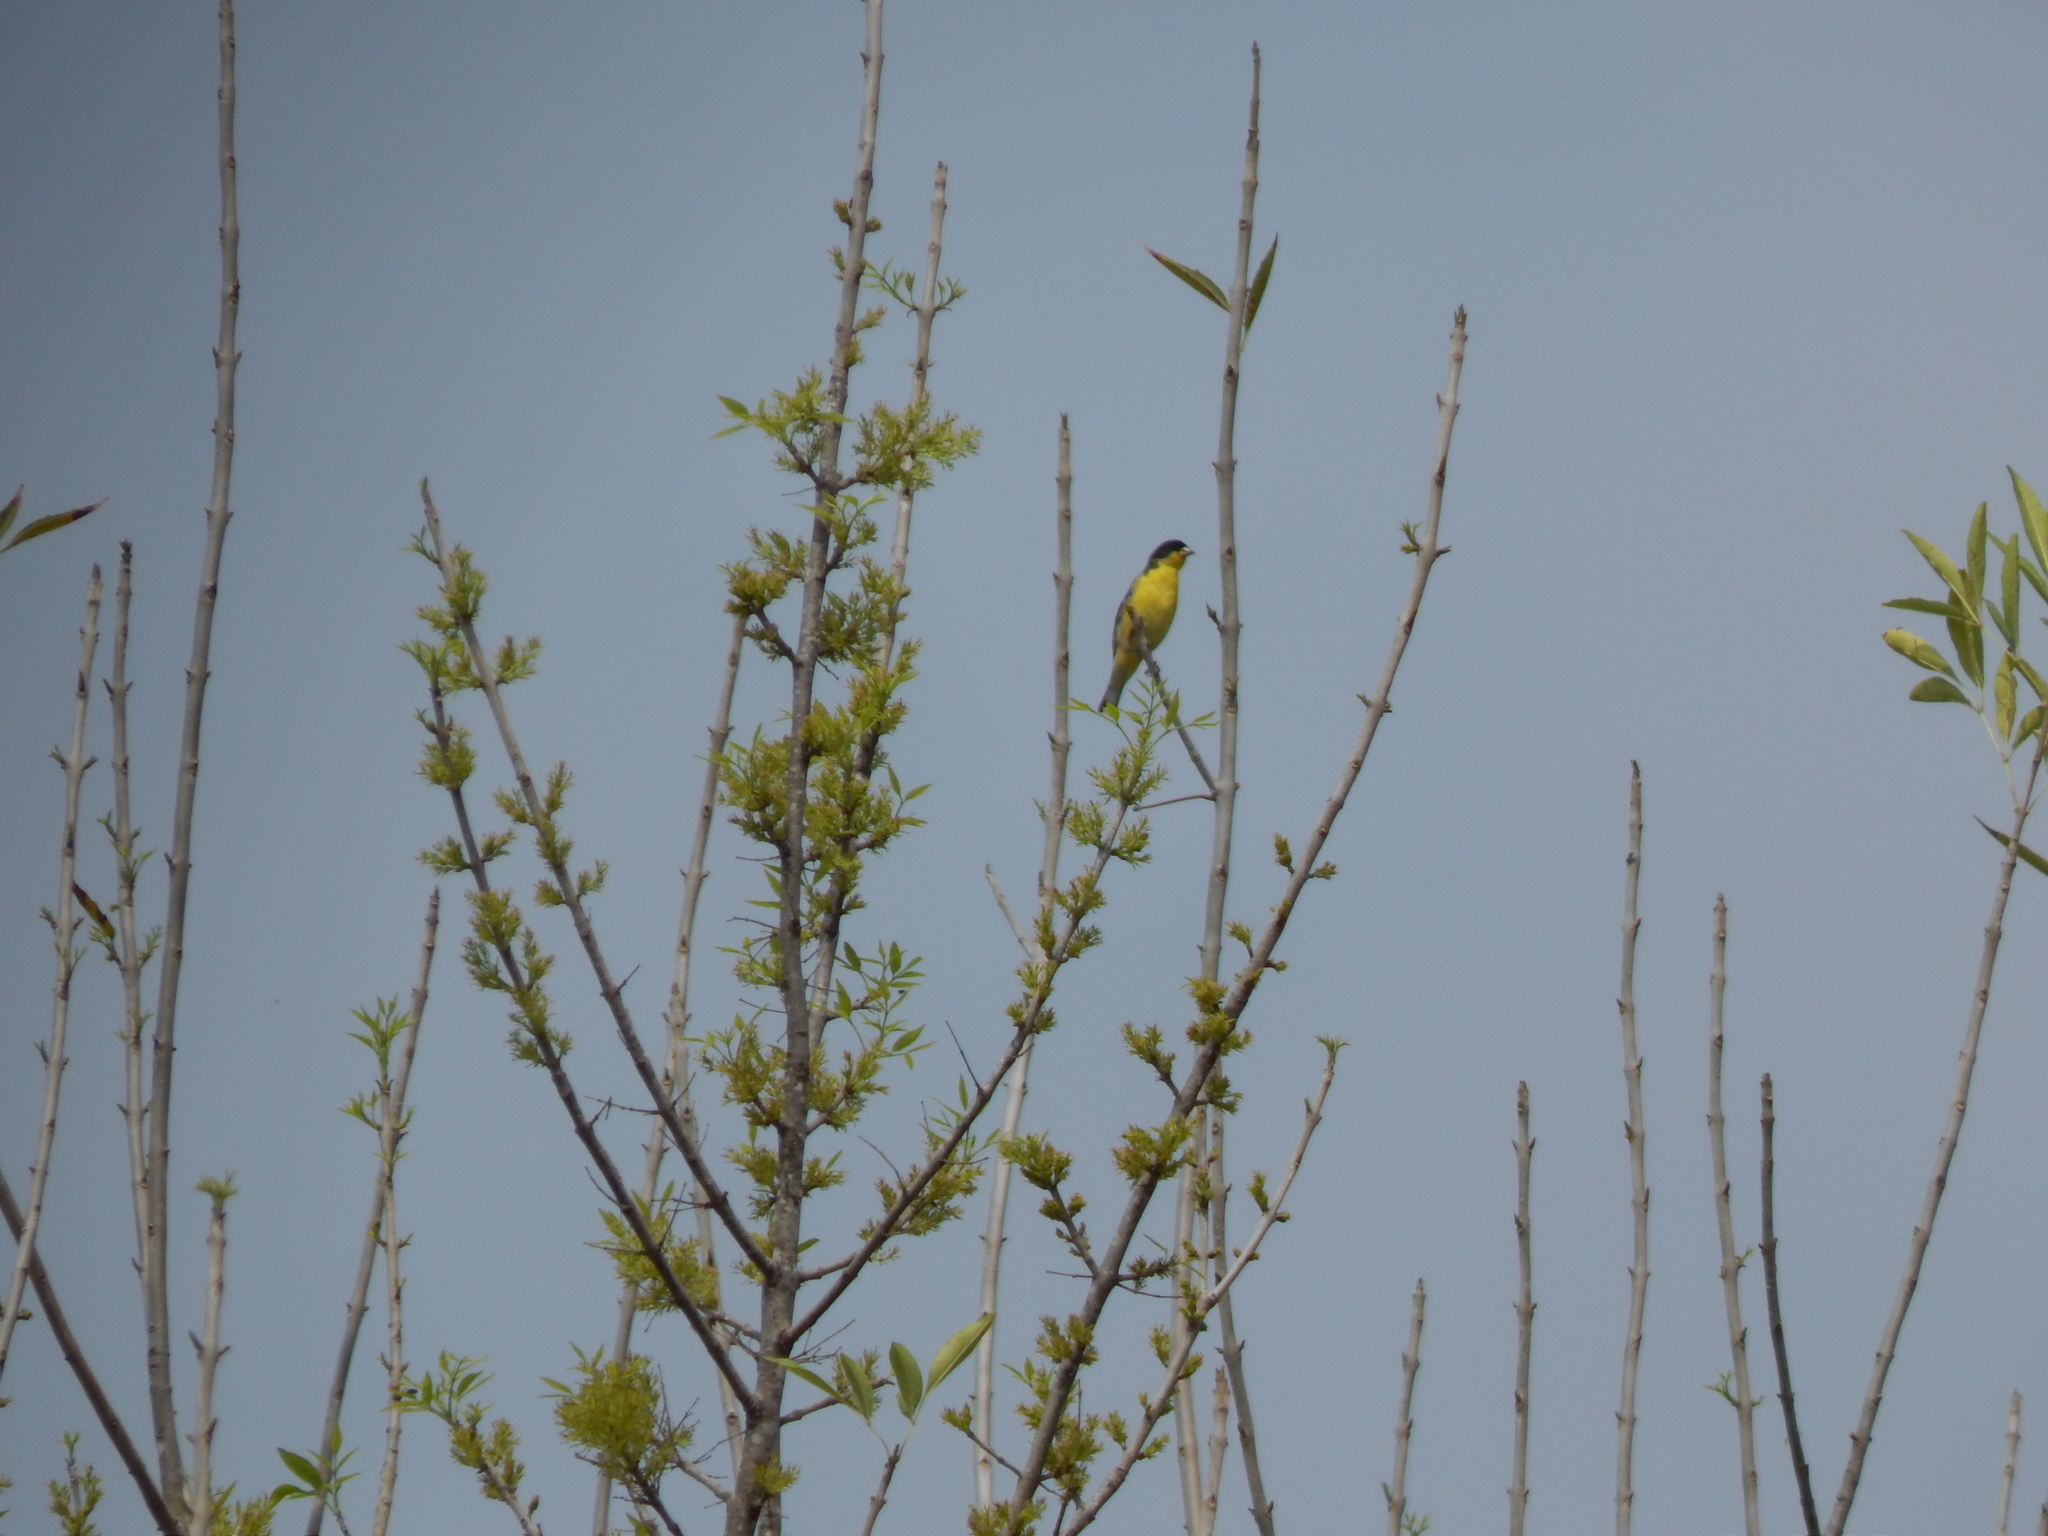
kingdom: Animalia
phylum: Chordata
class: Aves
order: Passeriformes
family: Fringillidae
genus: Spinus
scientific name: Spinus psaltria
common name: Lesser goldfinch
